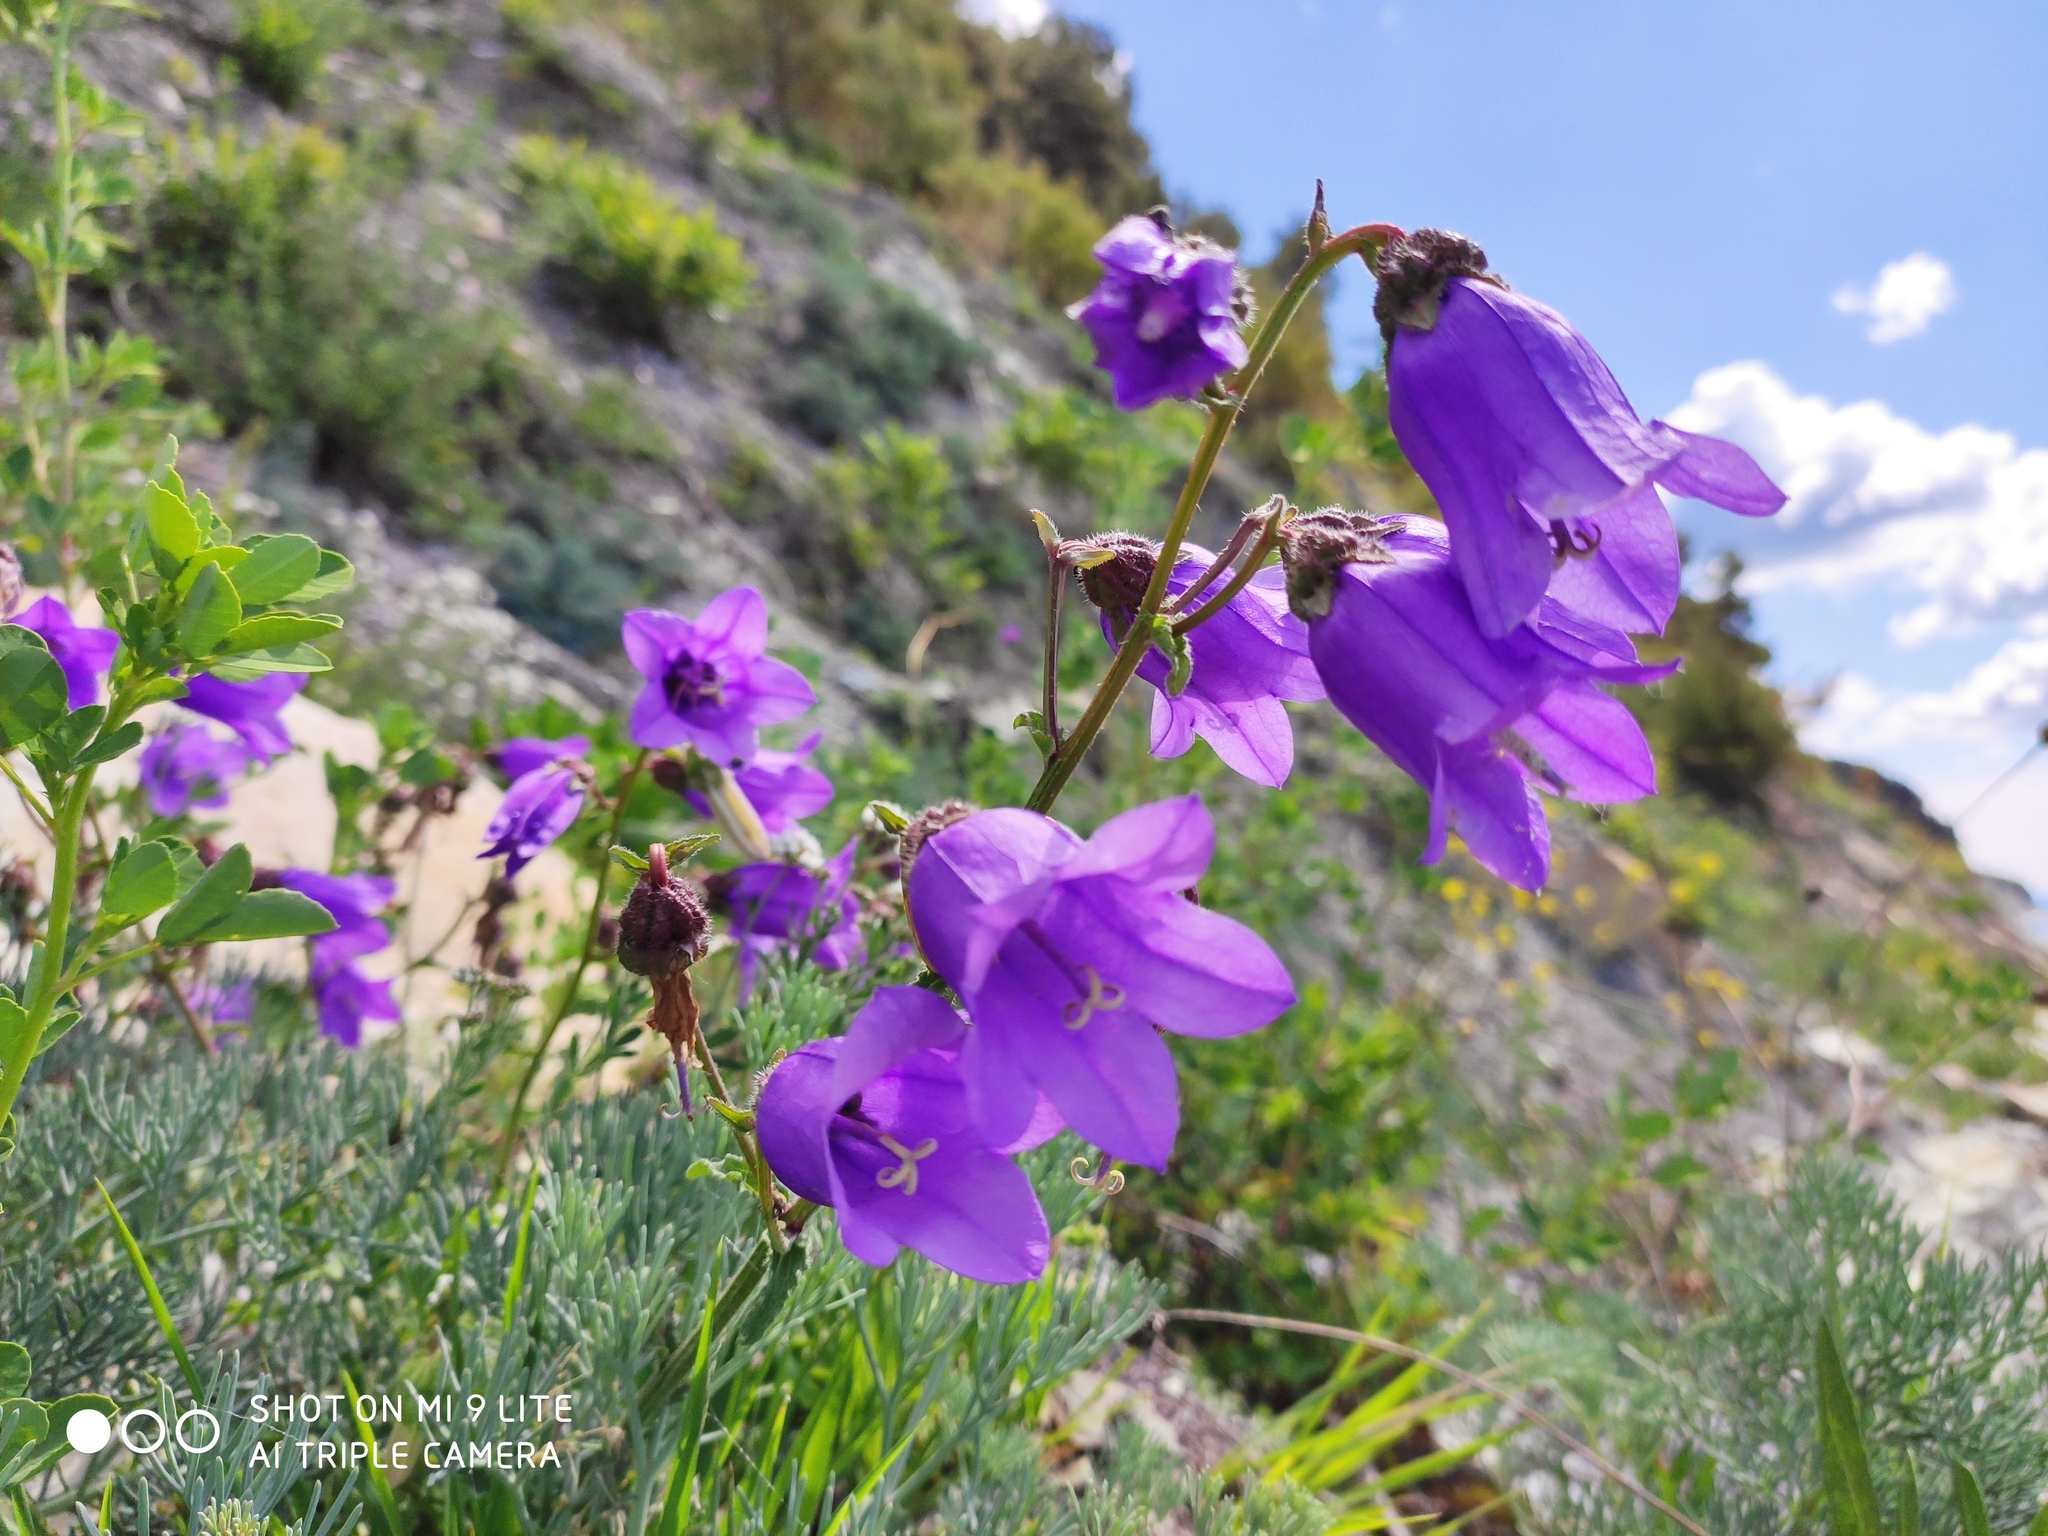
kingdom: Plantae
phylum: Tracheophyta
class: Magnoliopsida
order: Asterales
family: Campanulaceae
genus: Campanula
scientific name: Campanula komarovii
